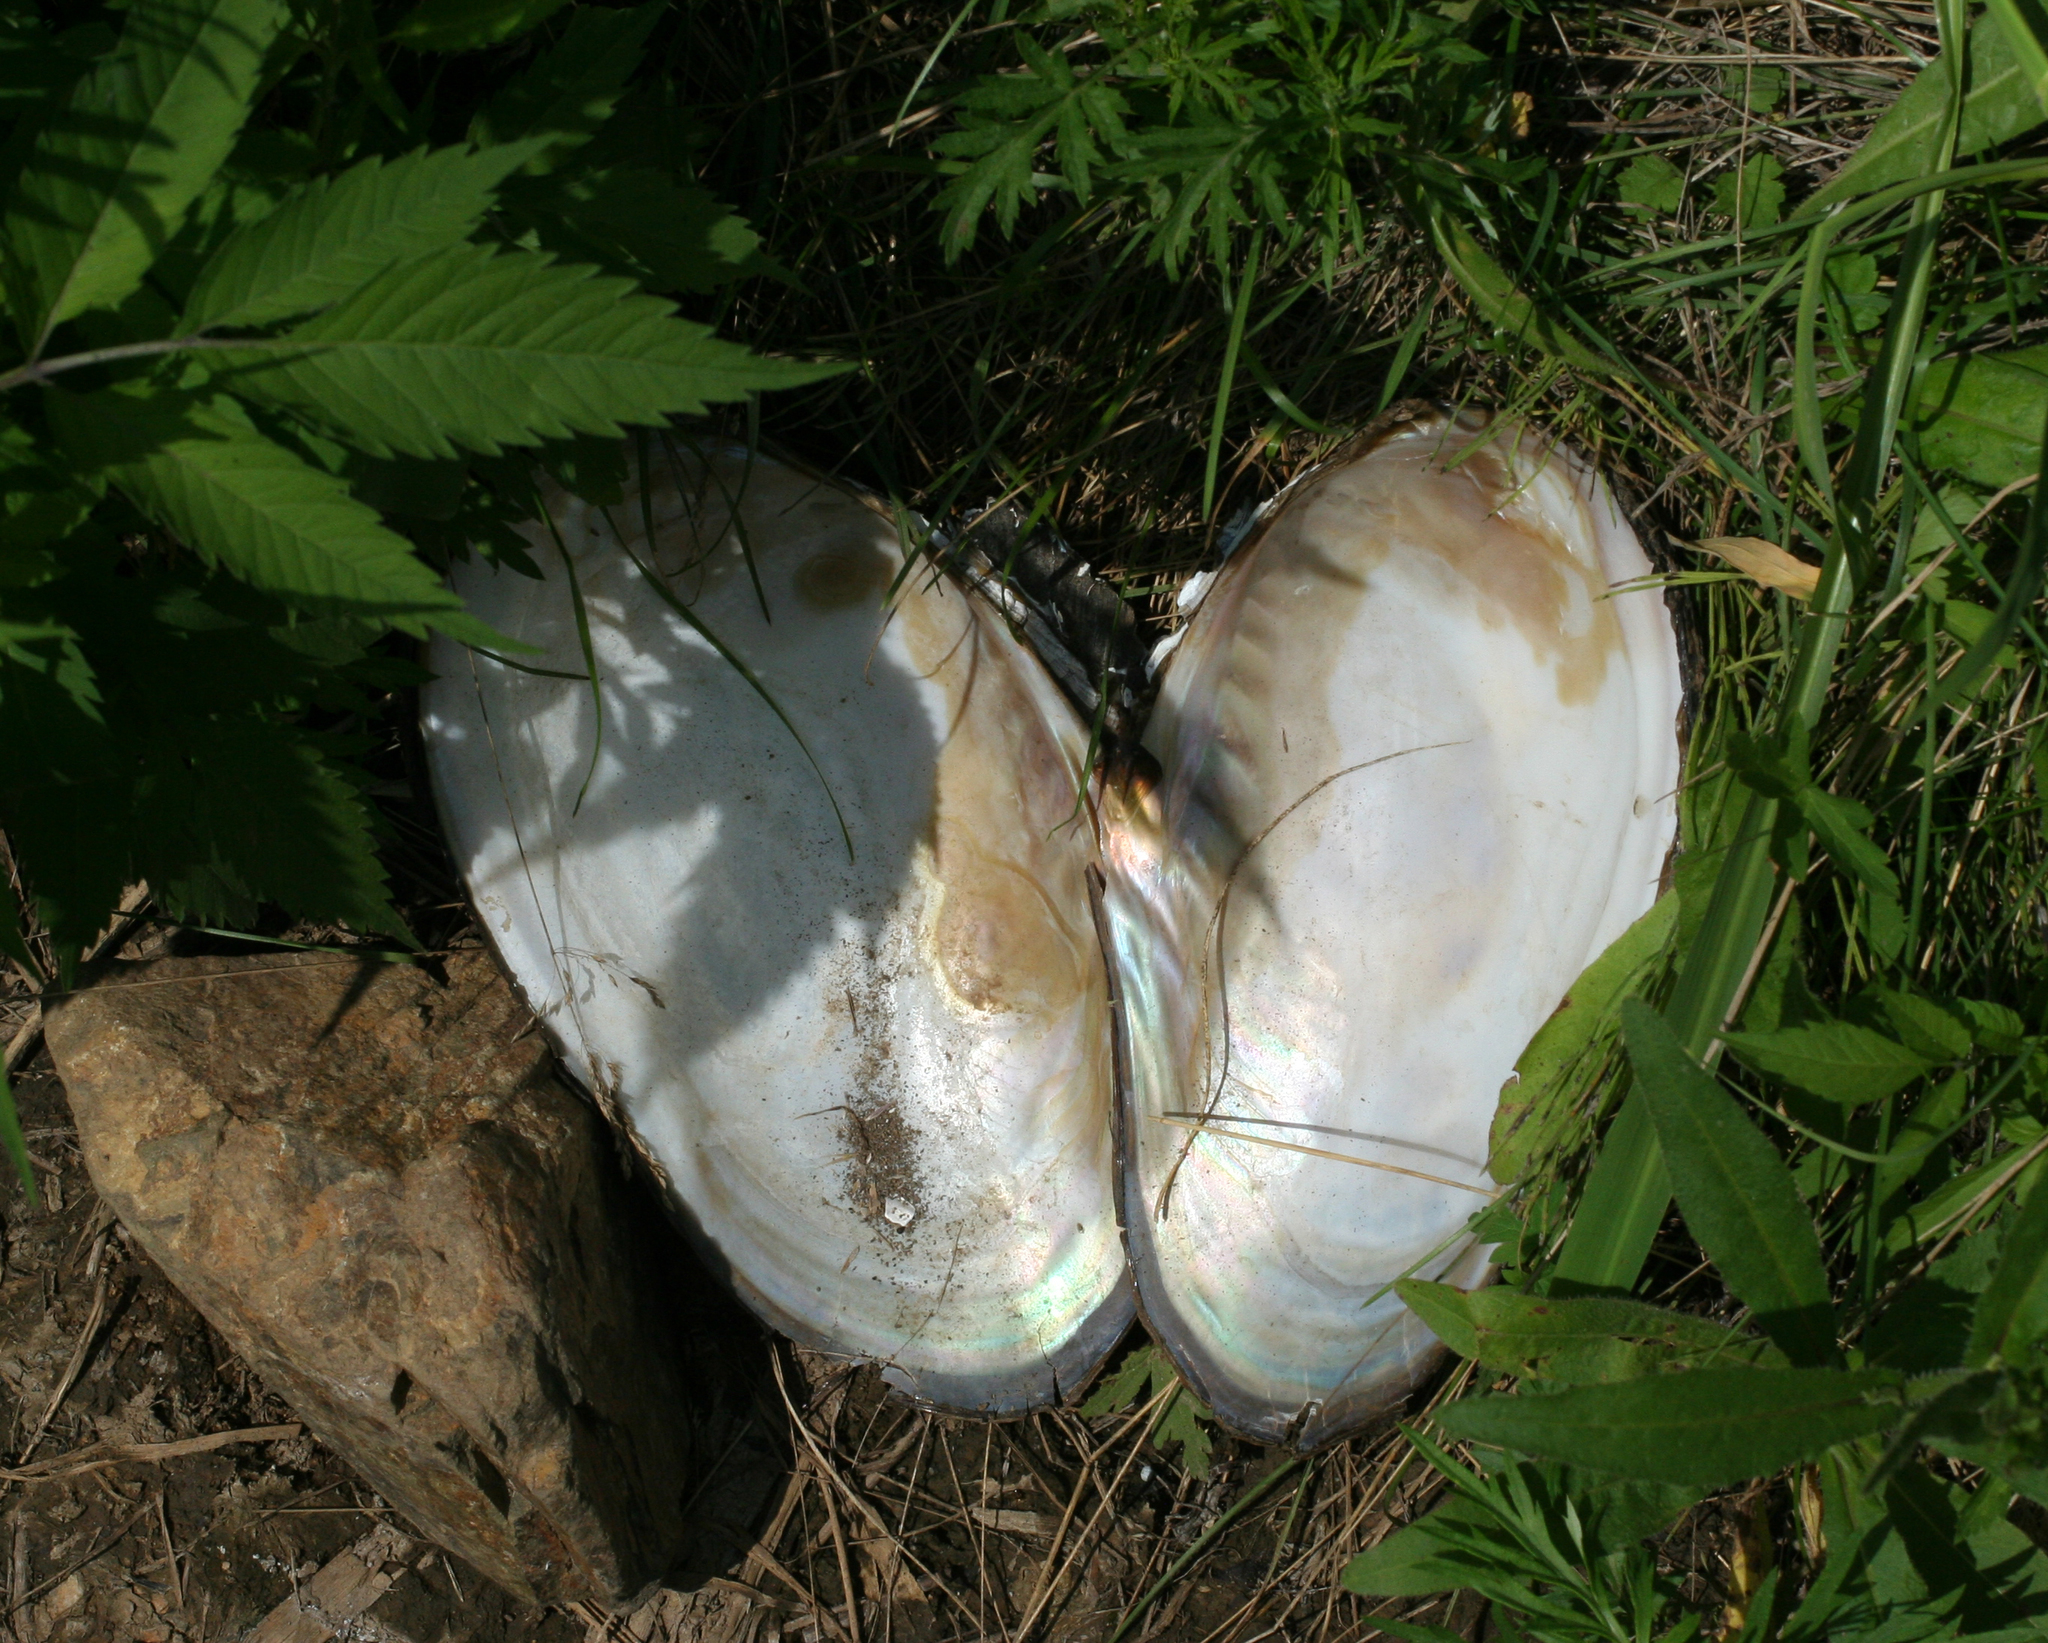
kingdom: Animalia
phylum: Mollusca
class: Bivalvia
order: Unionida
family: Unionidae
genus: Cristaria
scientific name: Cristaria plicata
